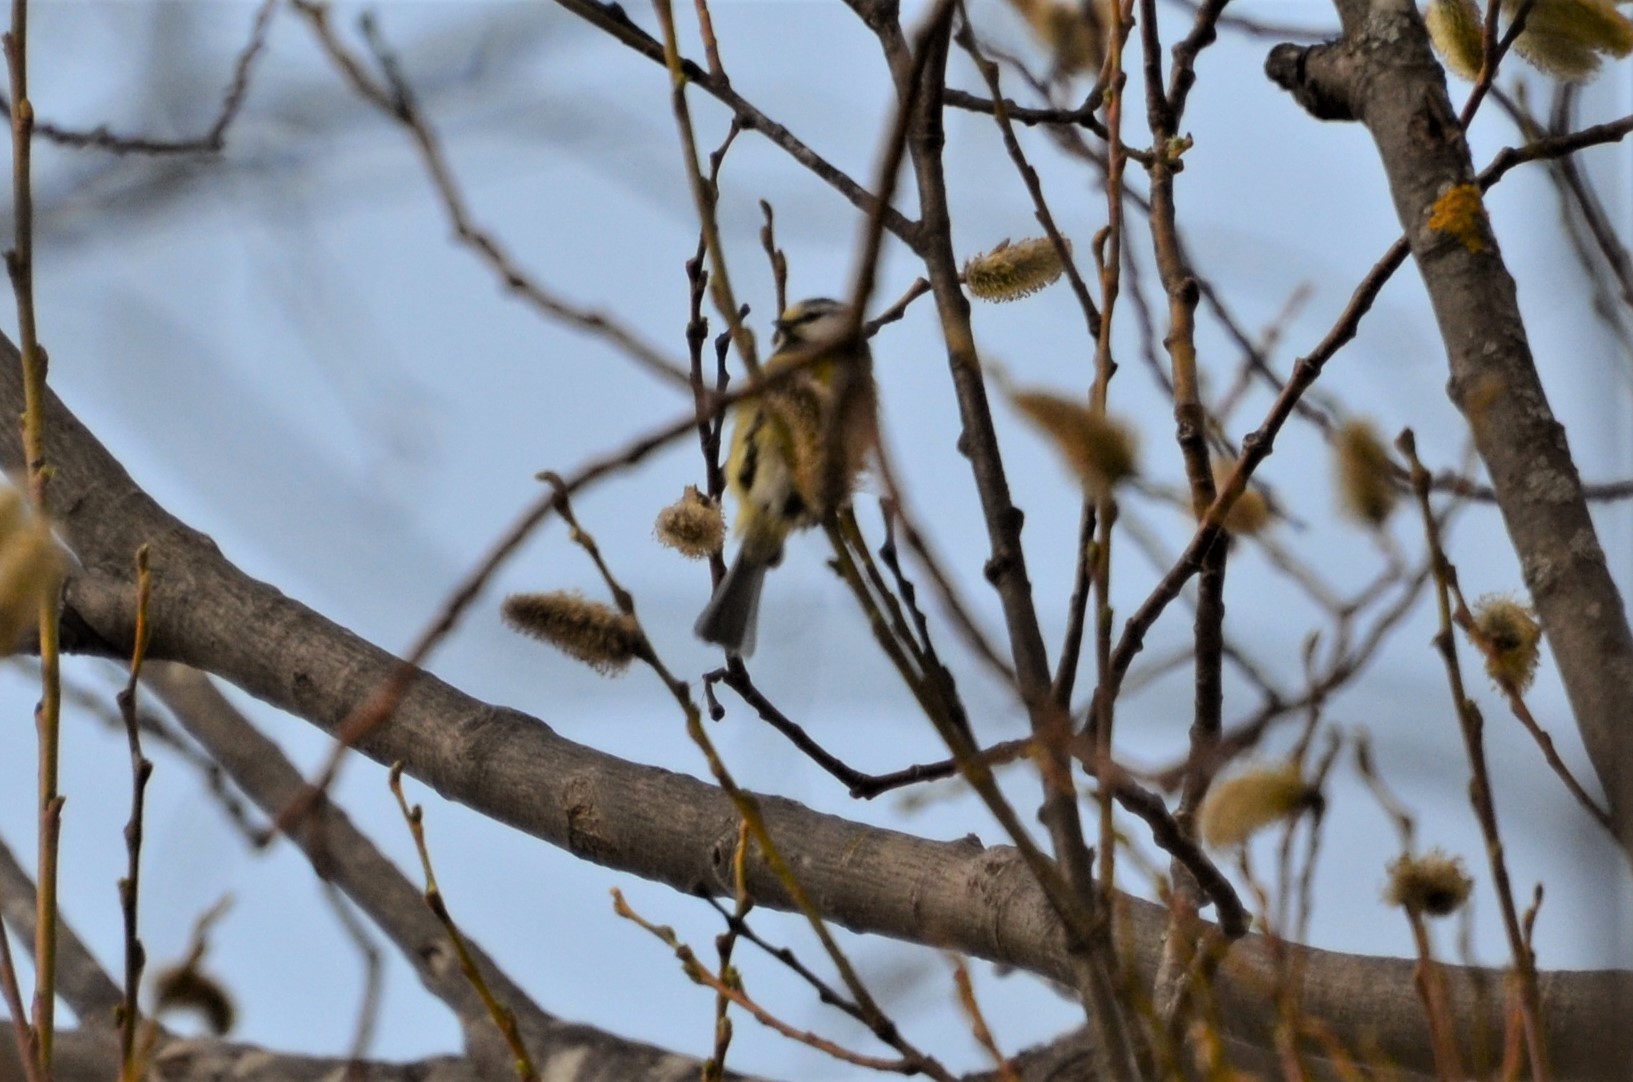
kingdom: Animalia
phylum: Chordata
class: Aves
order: Passeriformes
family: Paridae
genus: Cyanistes
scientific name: Cyanistes caeruleus
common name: Eurasian blue tit
